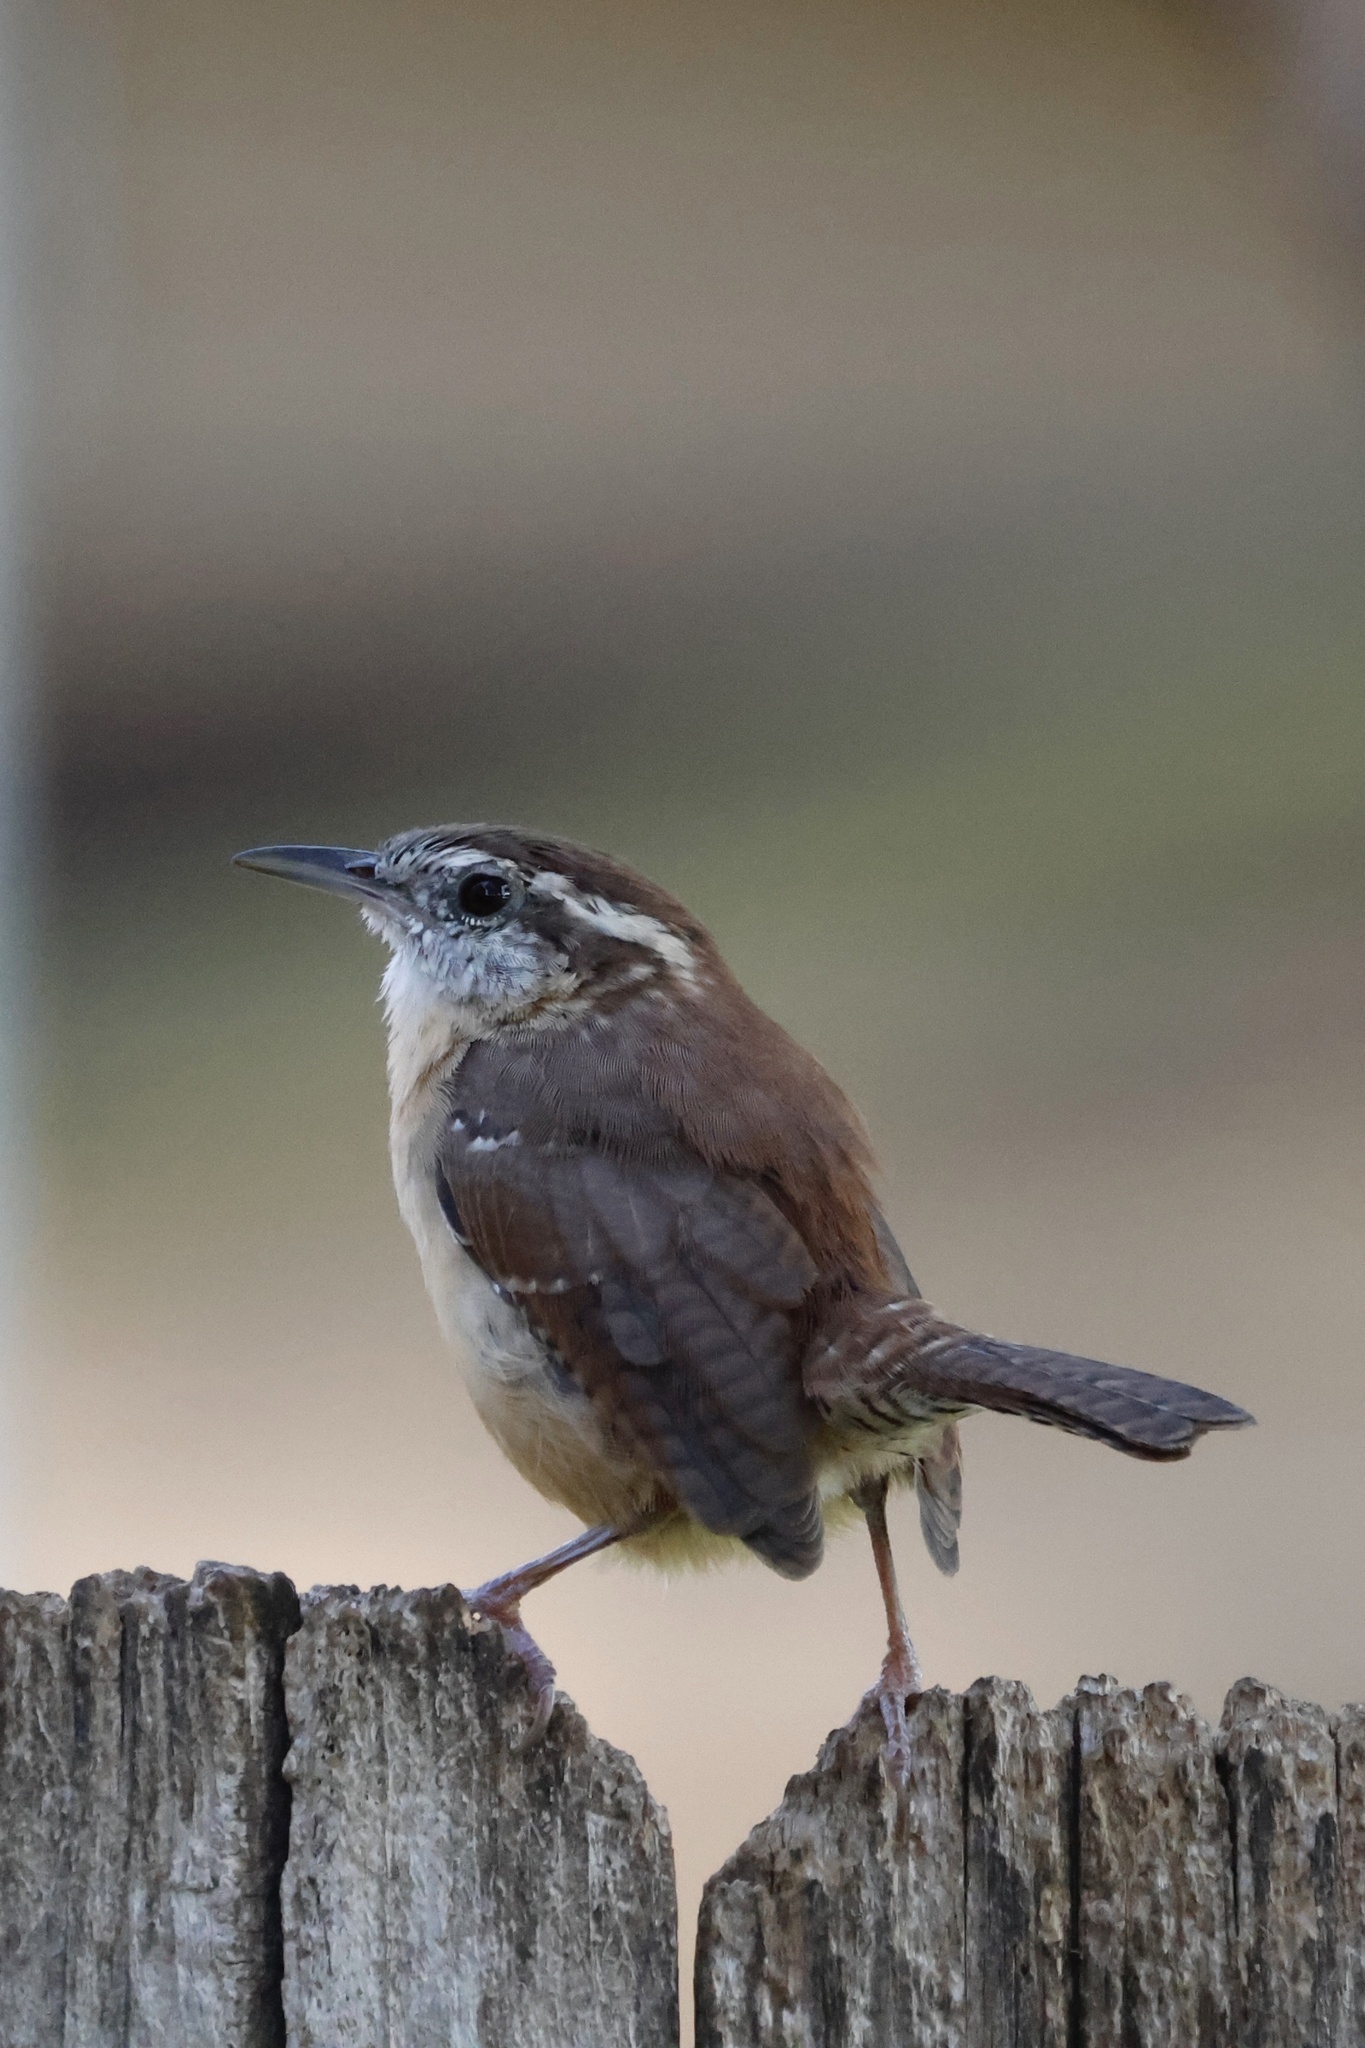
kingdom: Animalia
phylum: Chordata
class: Aves
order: Passeriformes
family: Troglodytidae
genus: Thryothorus
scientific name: Thryothorus ludovicianus
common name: Carolina wren
